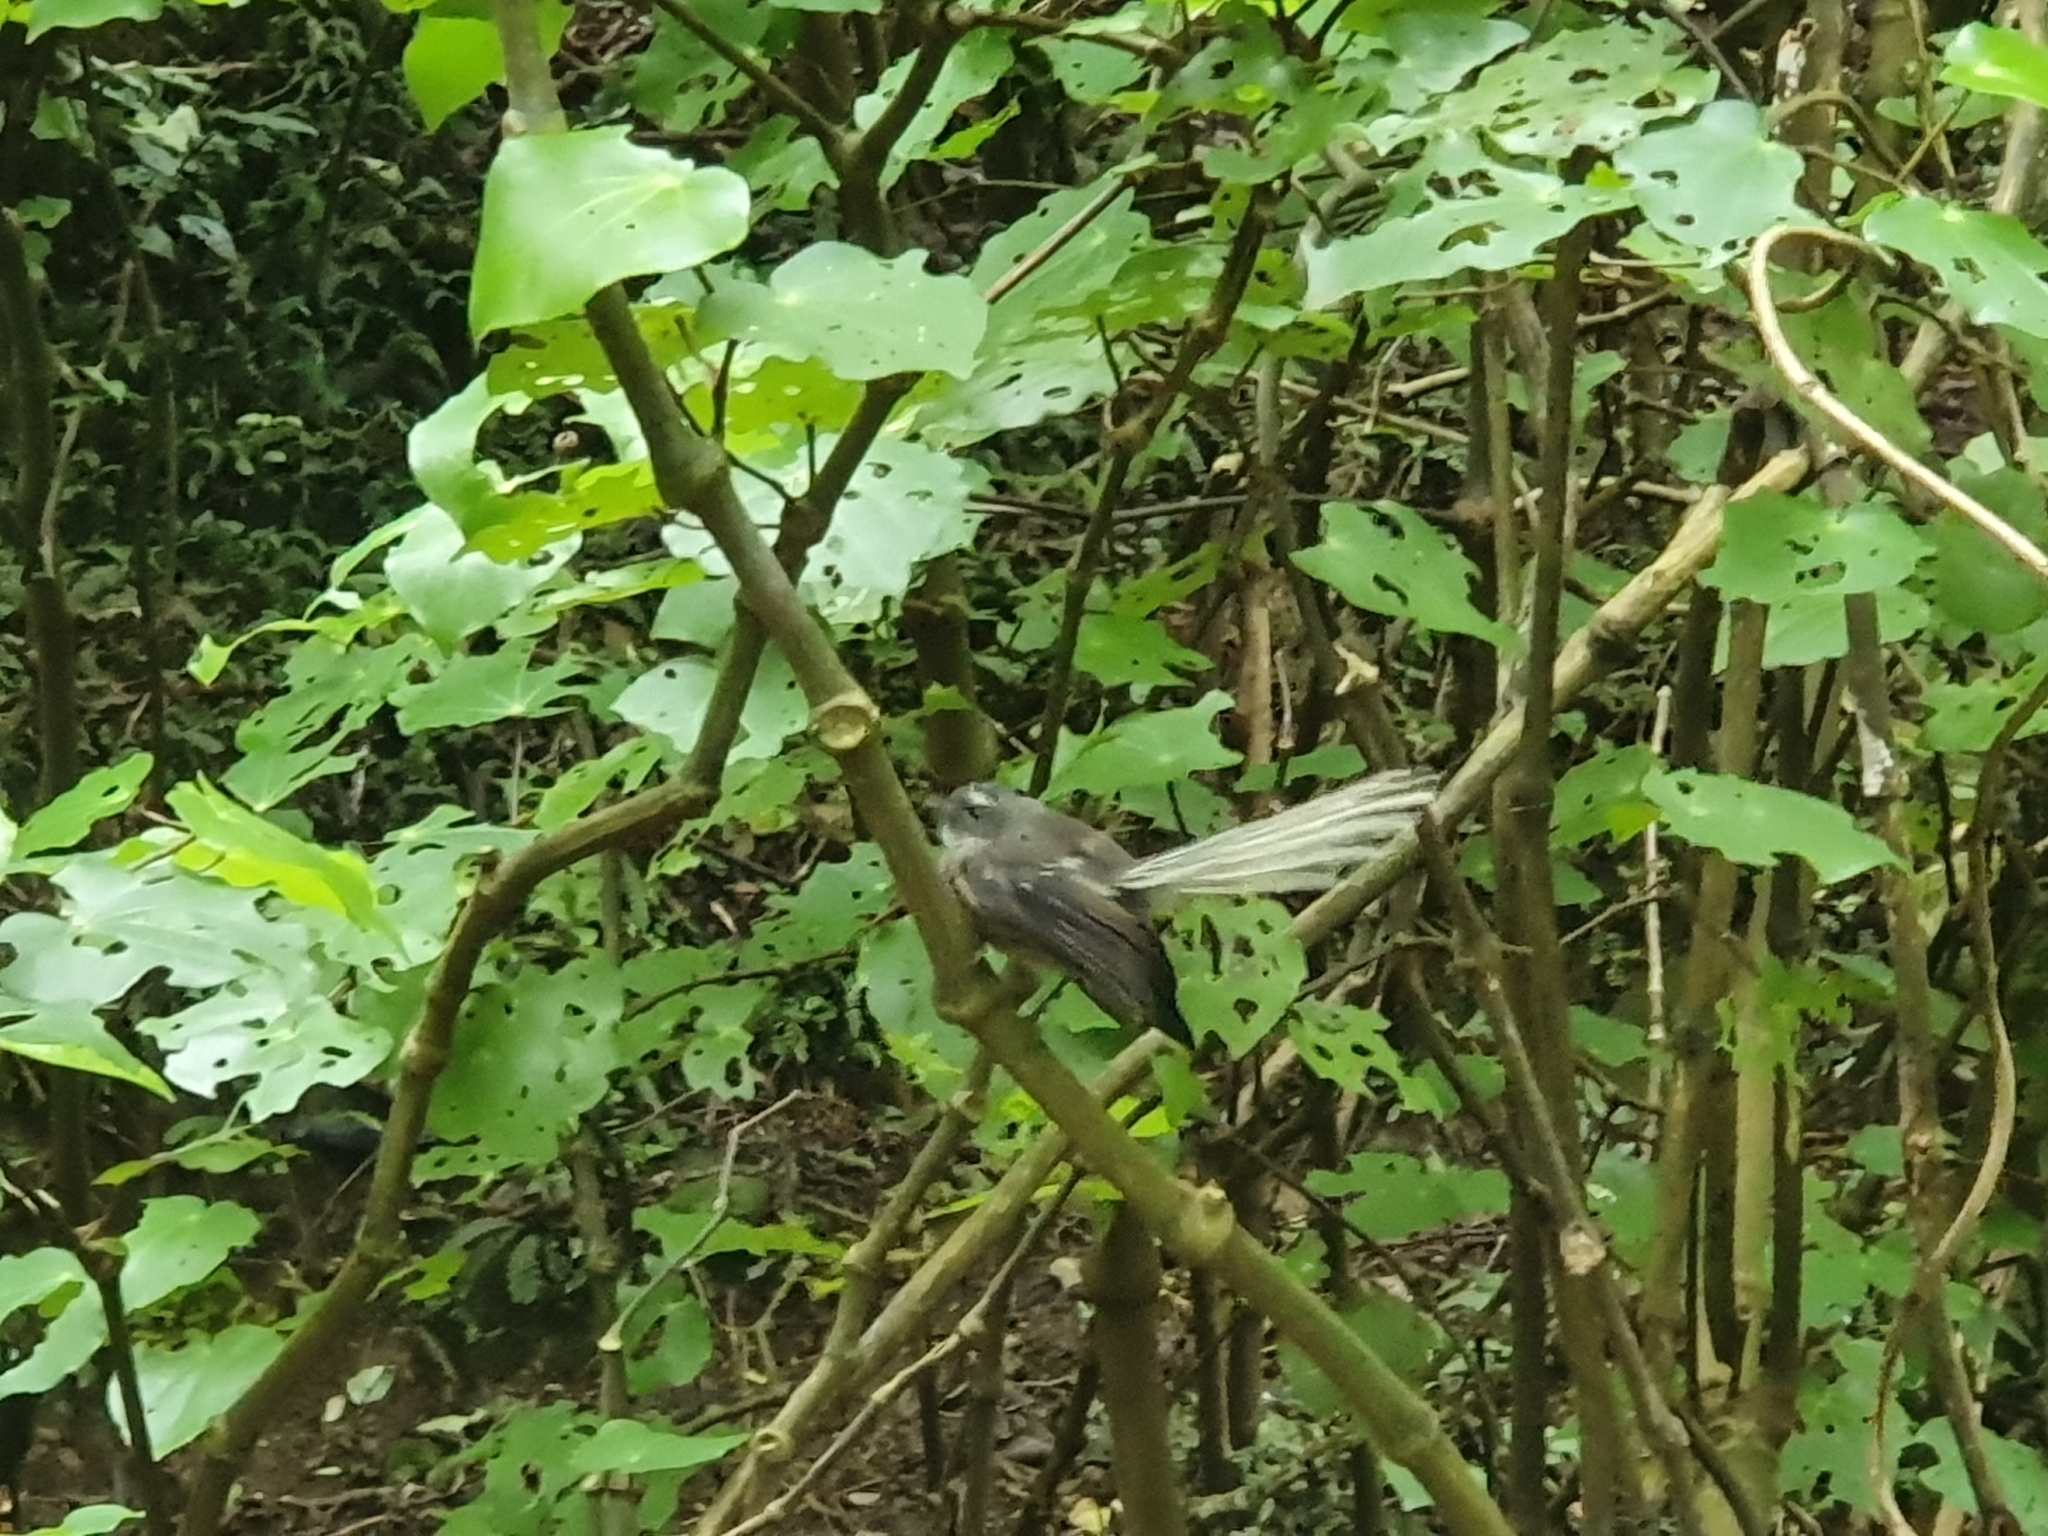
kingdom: Animalia
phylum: Chordata
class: Aves
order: Passeriformes
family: Rhipiduridae
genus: Rhipidura
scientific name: Rhipidura fuliginosa
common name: New zealand fantail
